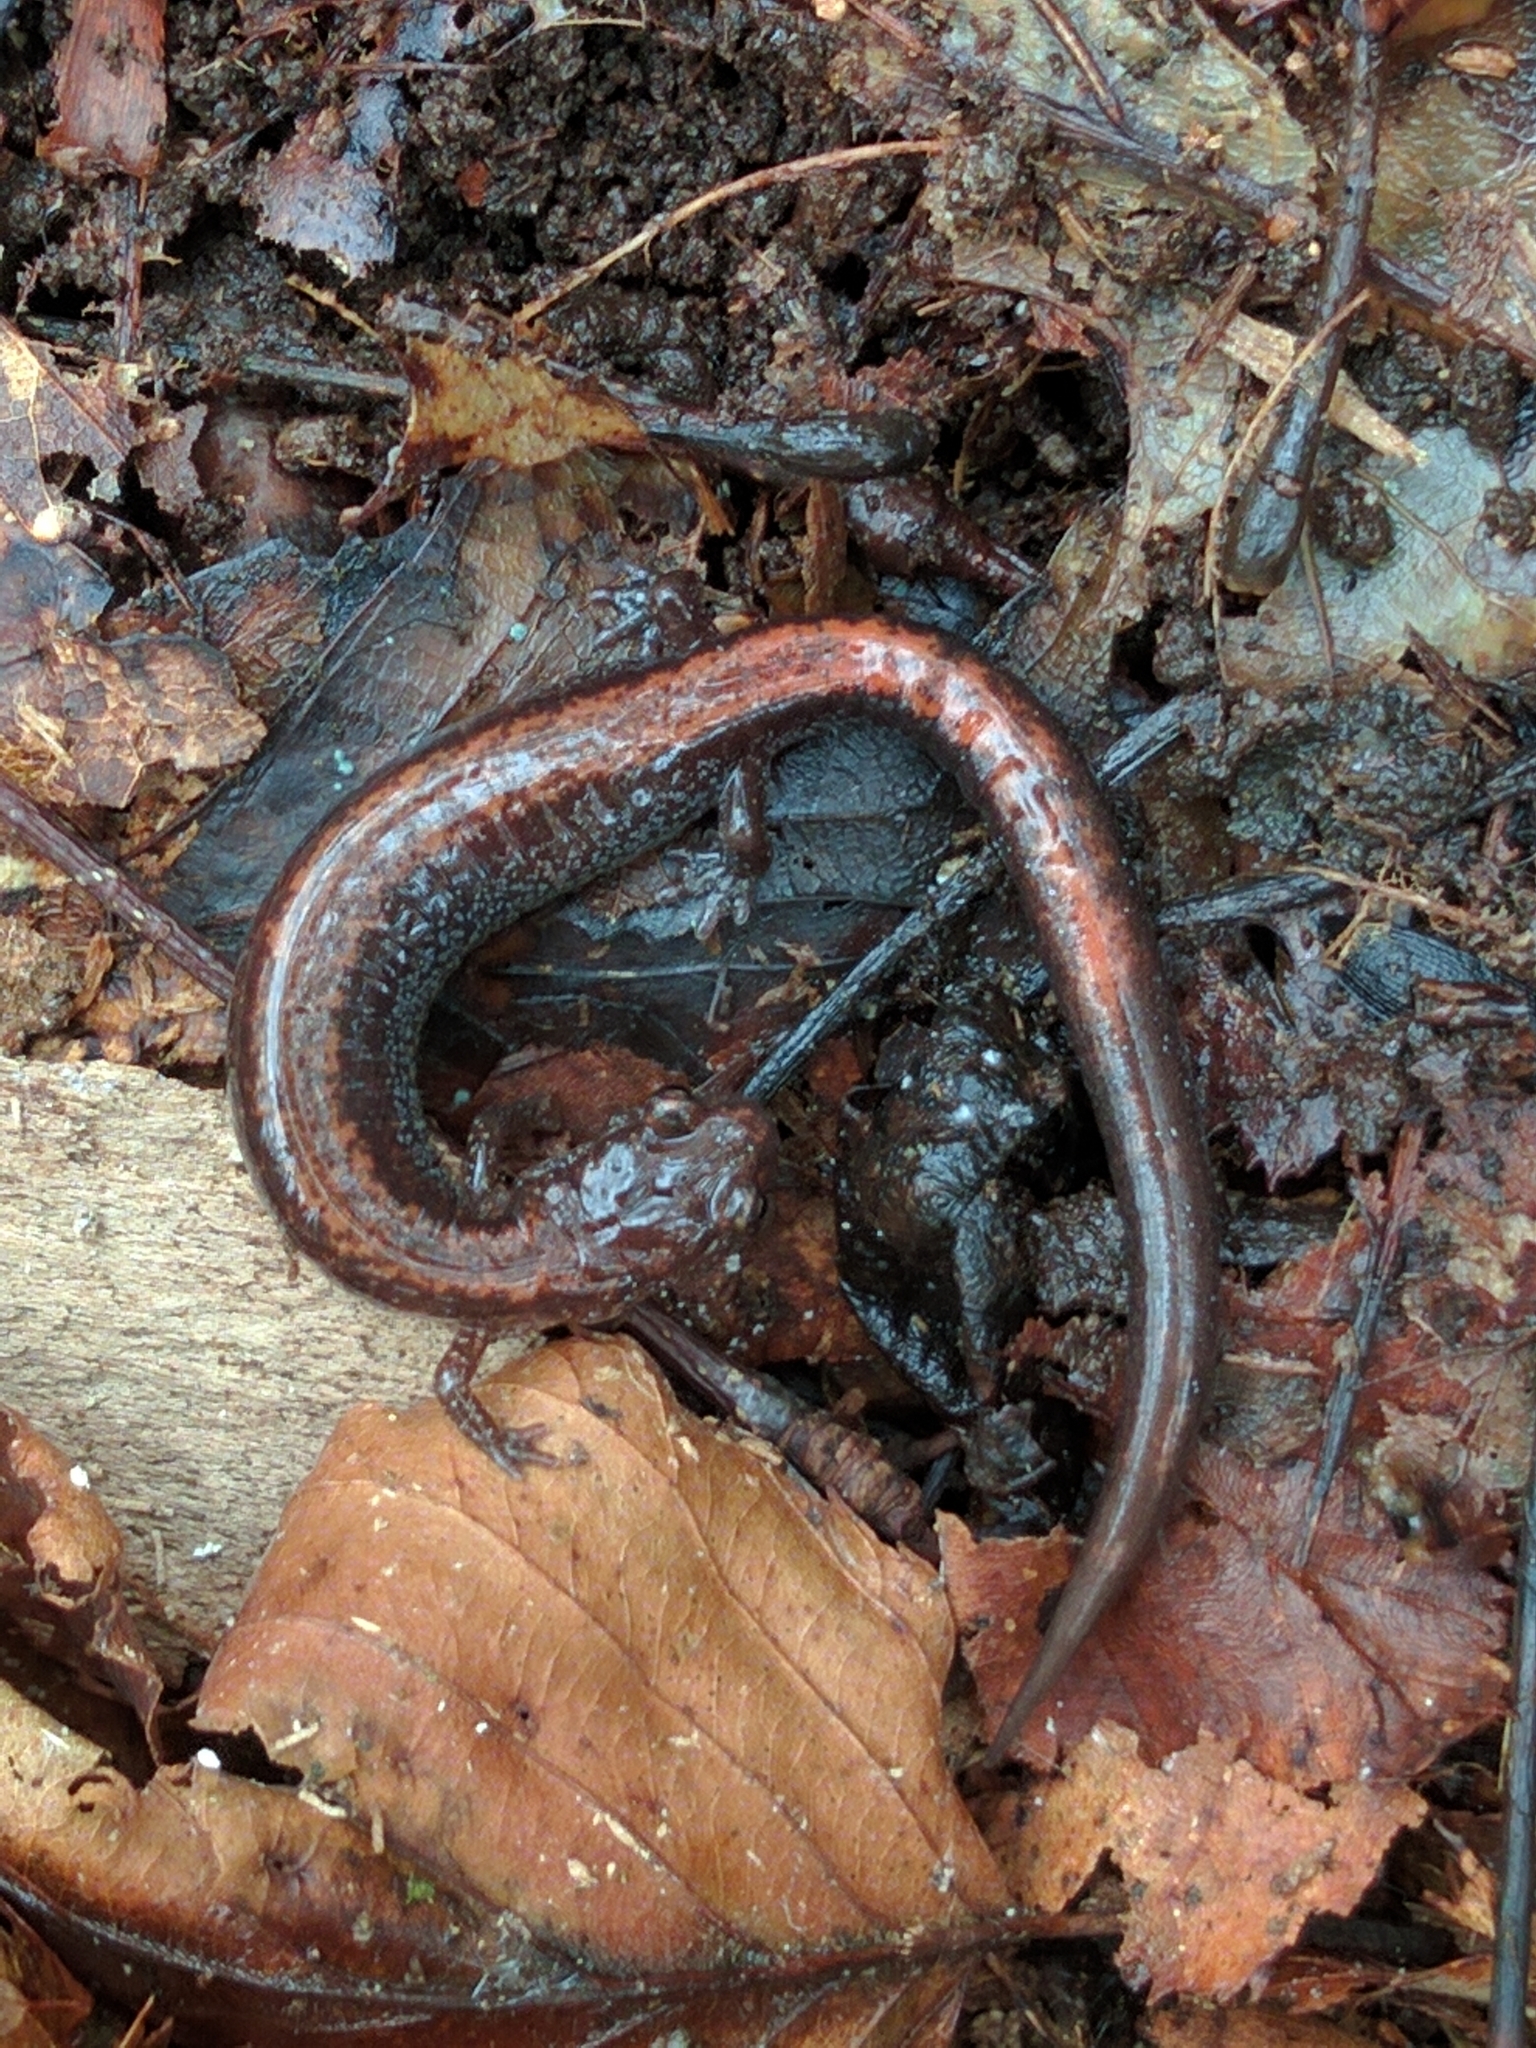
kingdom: Animalia
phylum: Chordata
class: Amphibia
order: Caudata
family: Plethodontidae
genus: Plethodon
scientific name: Plethodon cinereus
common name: Redback salamander
